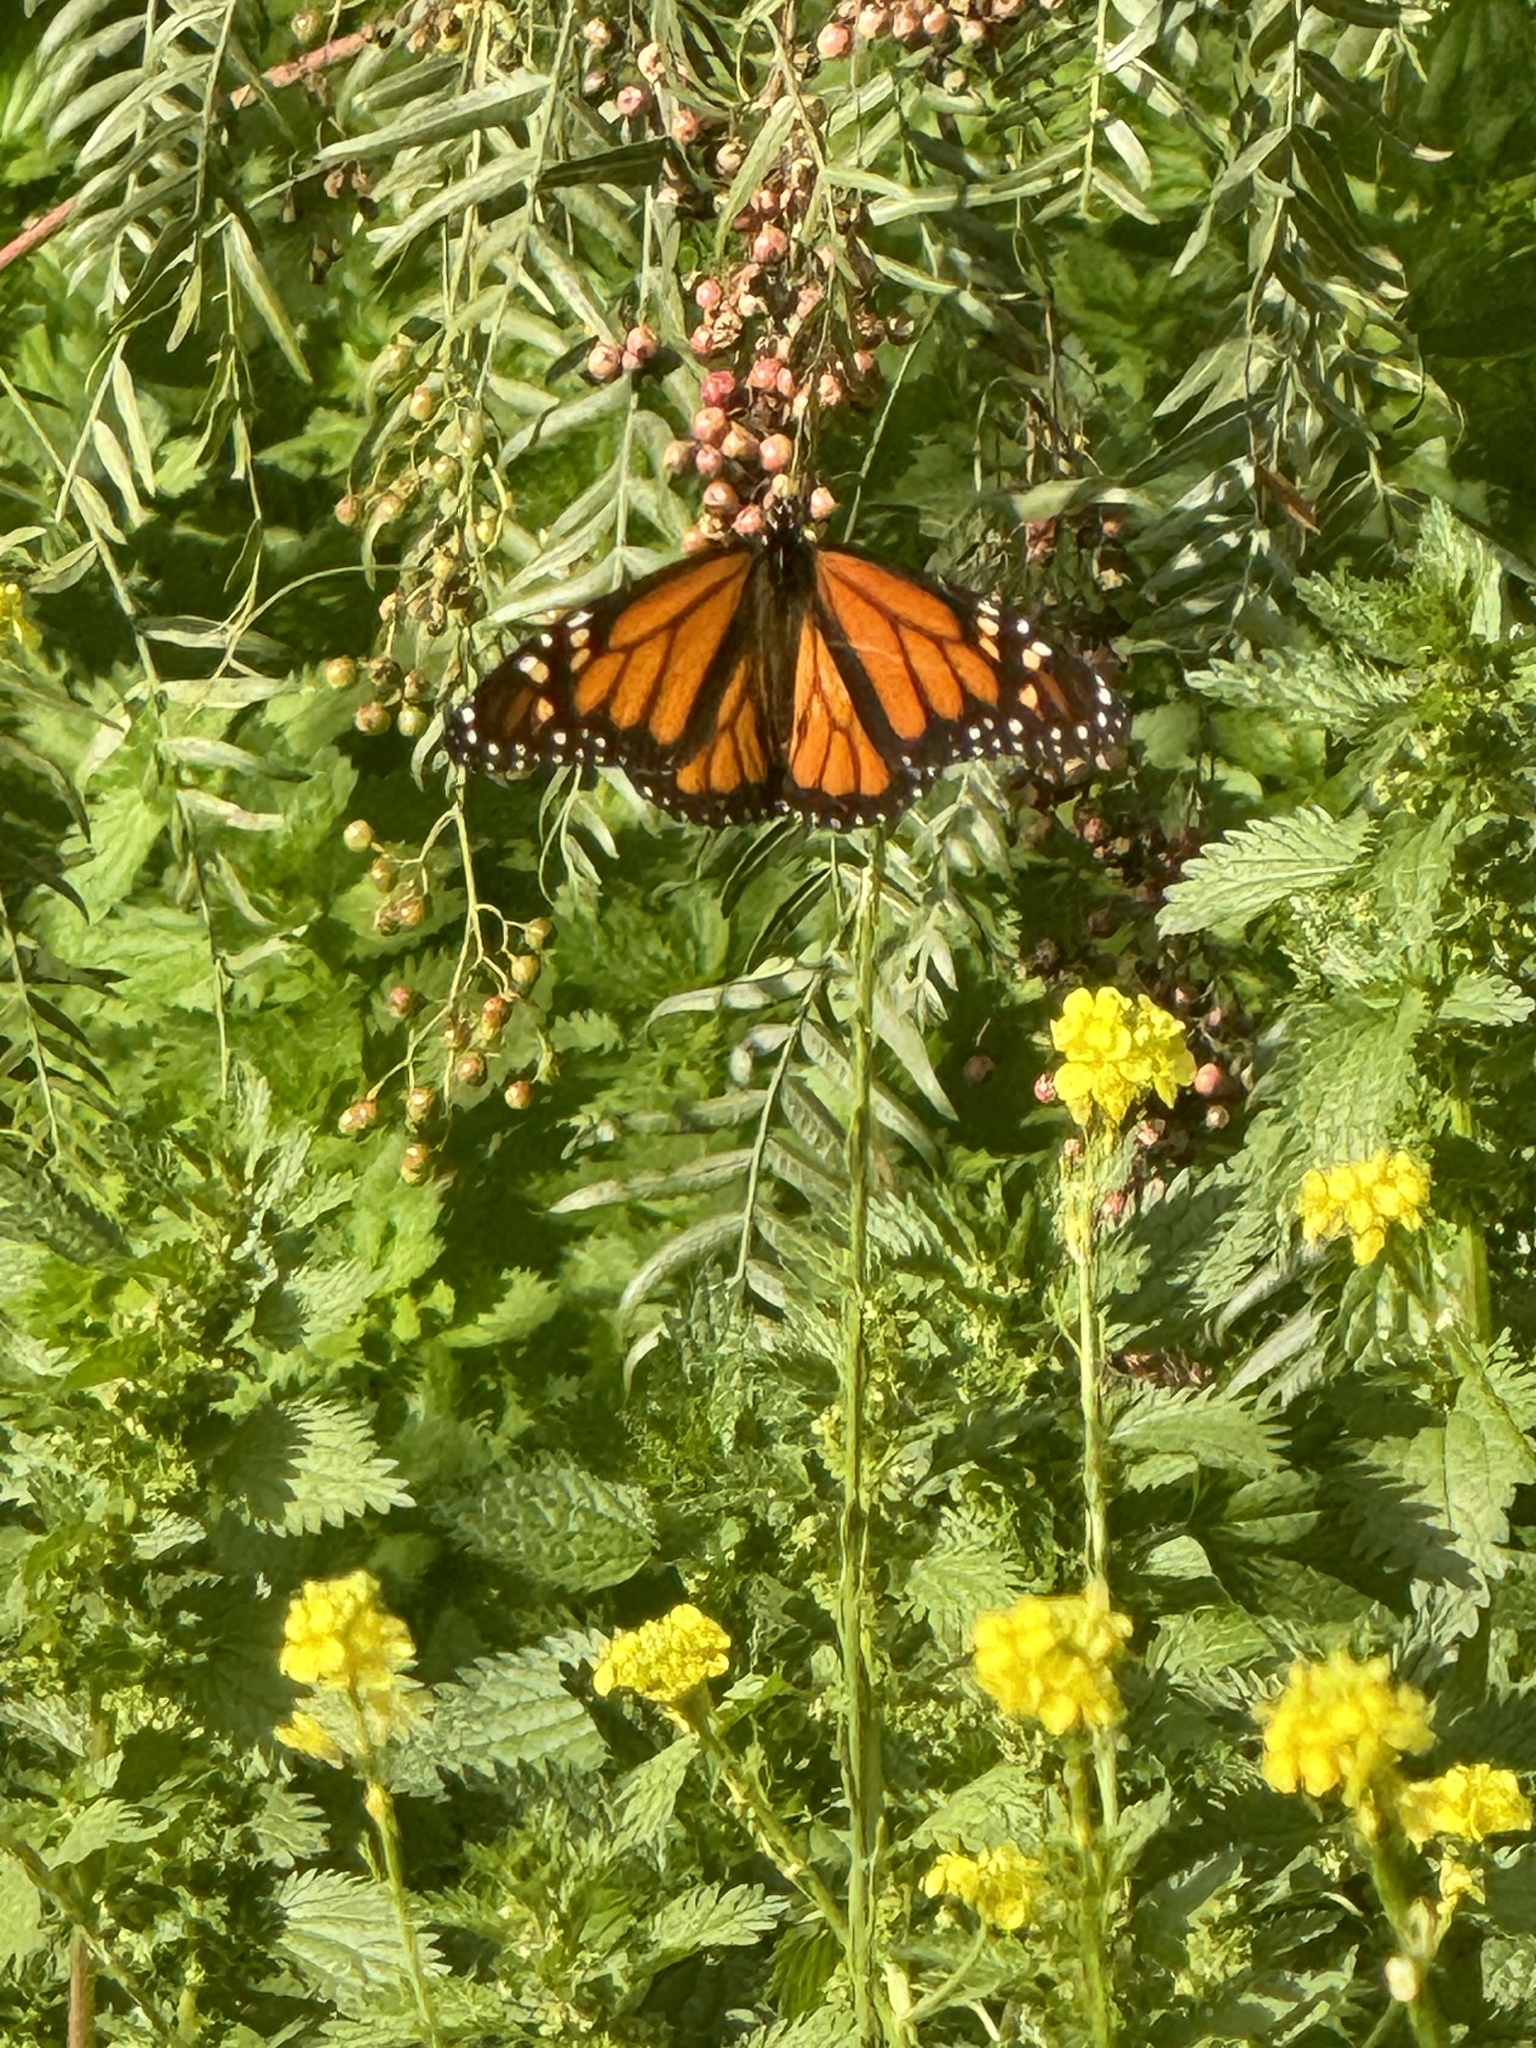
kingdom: Animalia
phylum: Arthropoda
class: Insecta
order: Lepidoptera
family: Nymphalidae
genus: Danaus
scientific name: Danaus plexippus
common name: Monarch
